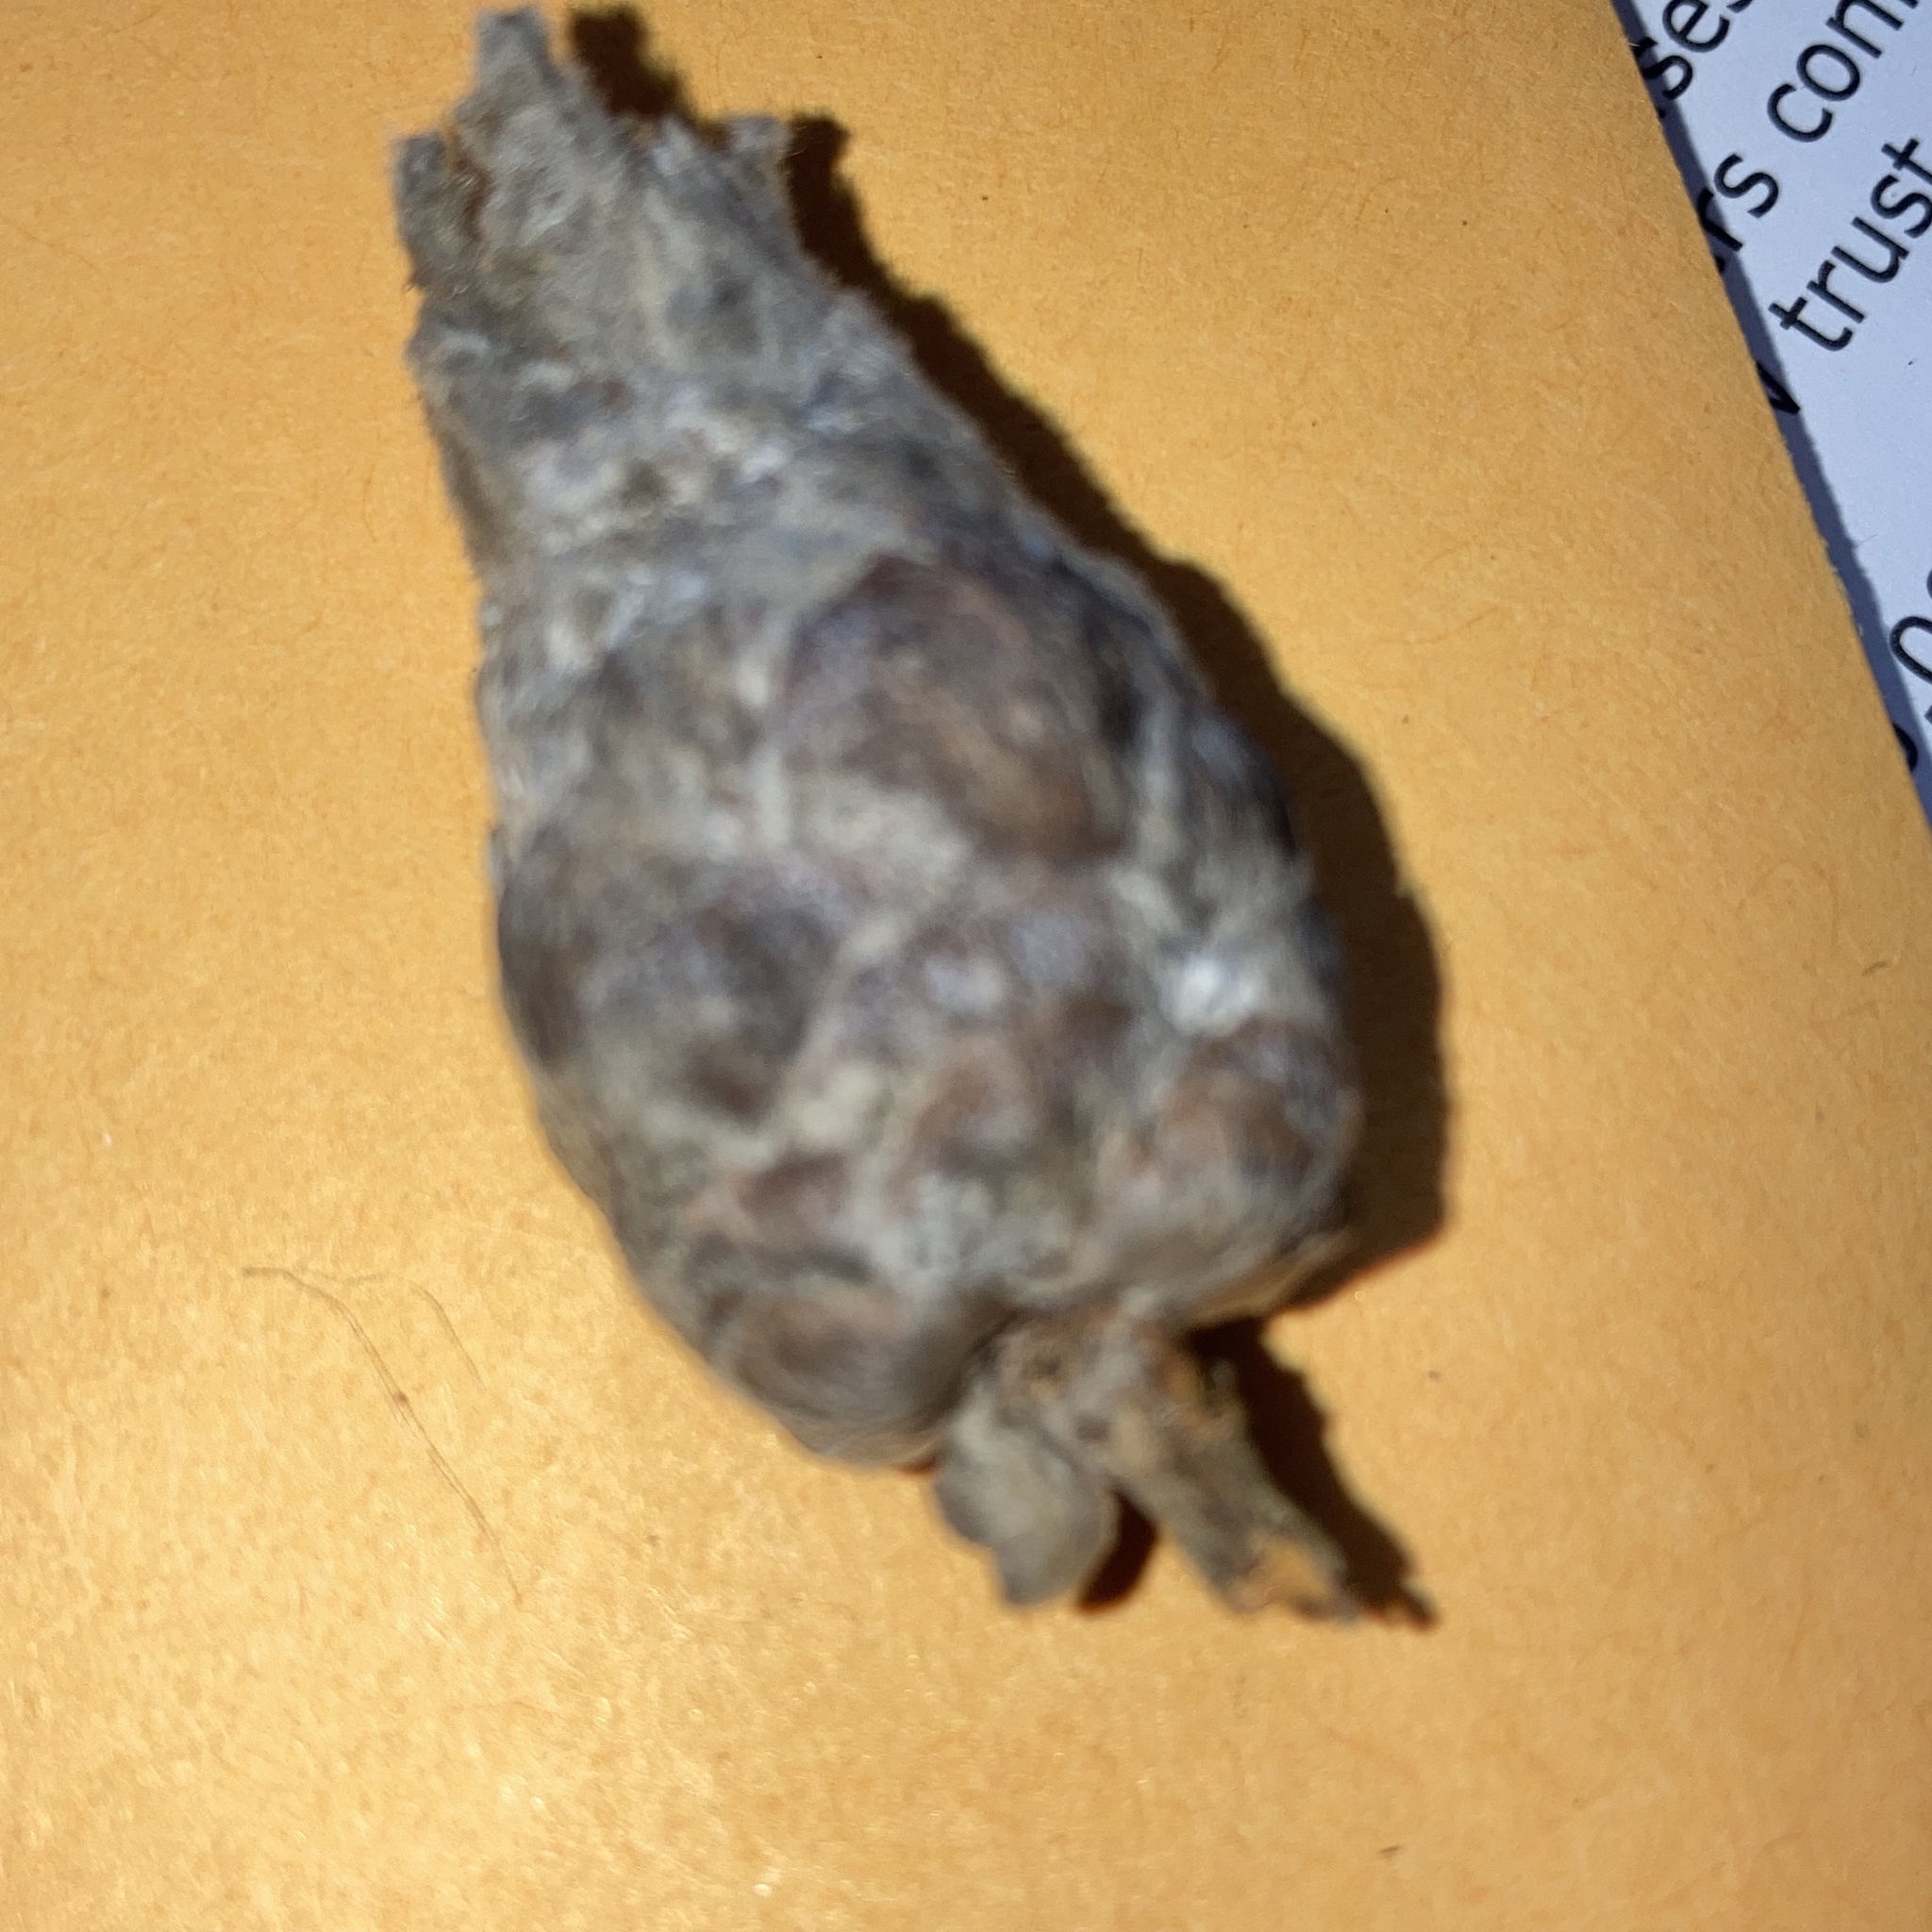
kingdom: Animalia
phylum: Arthropoda
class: Insecta
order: Diptera
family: Cecidomyiidae
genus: Rabdophaga
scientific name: Rabdophaga strobiloides
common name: Willow pinecone gall midge
